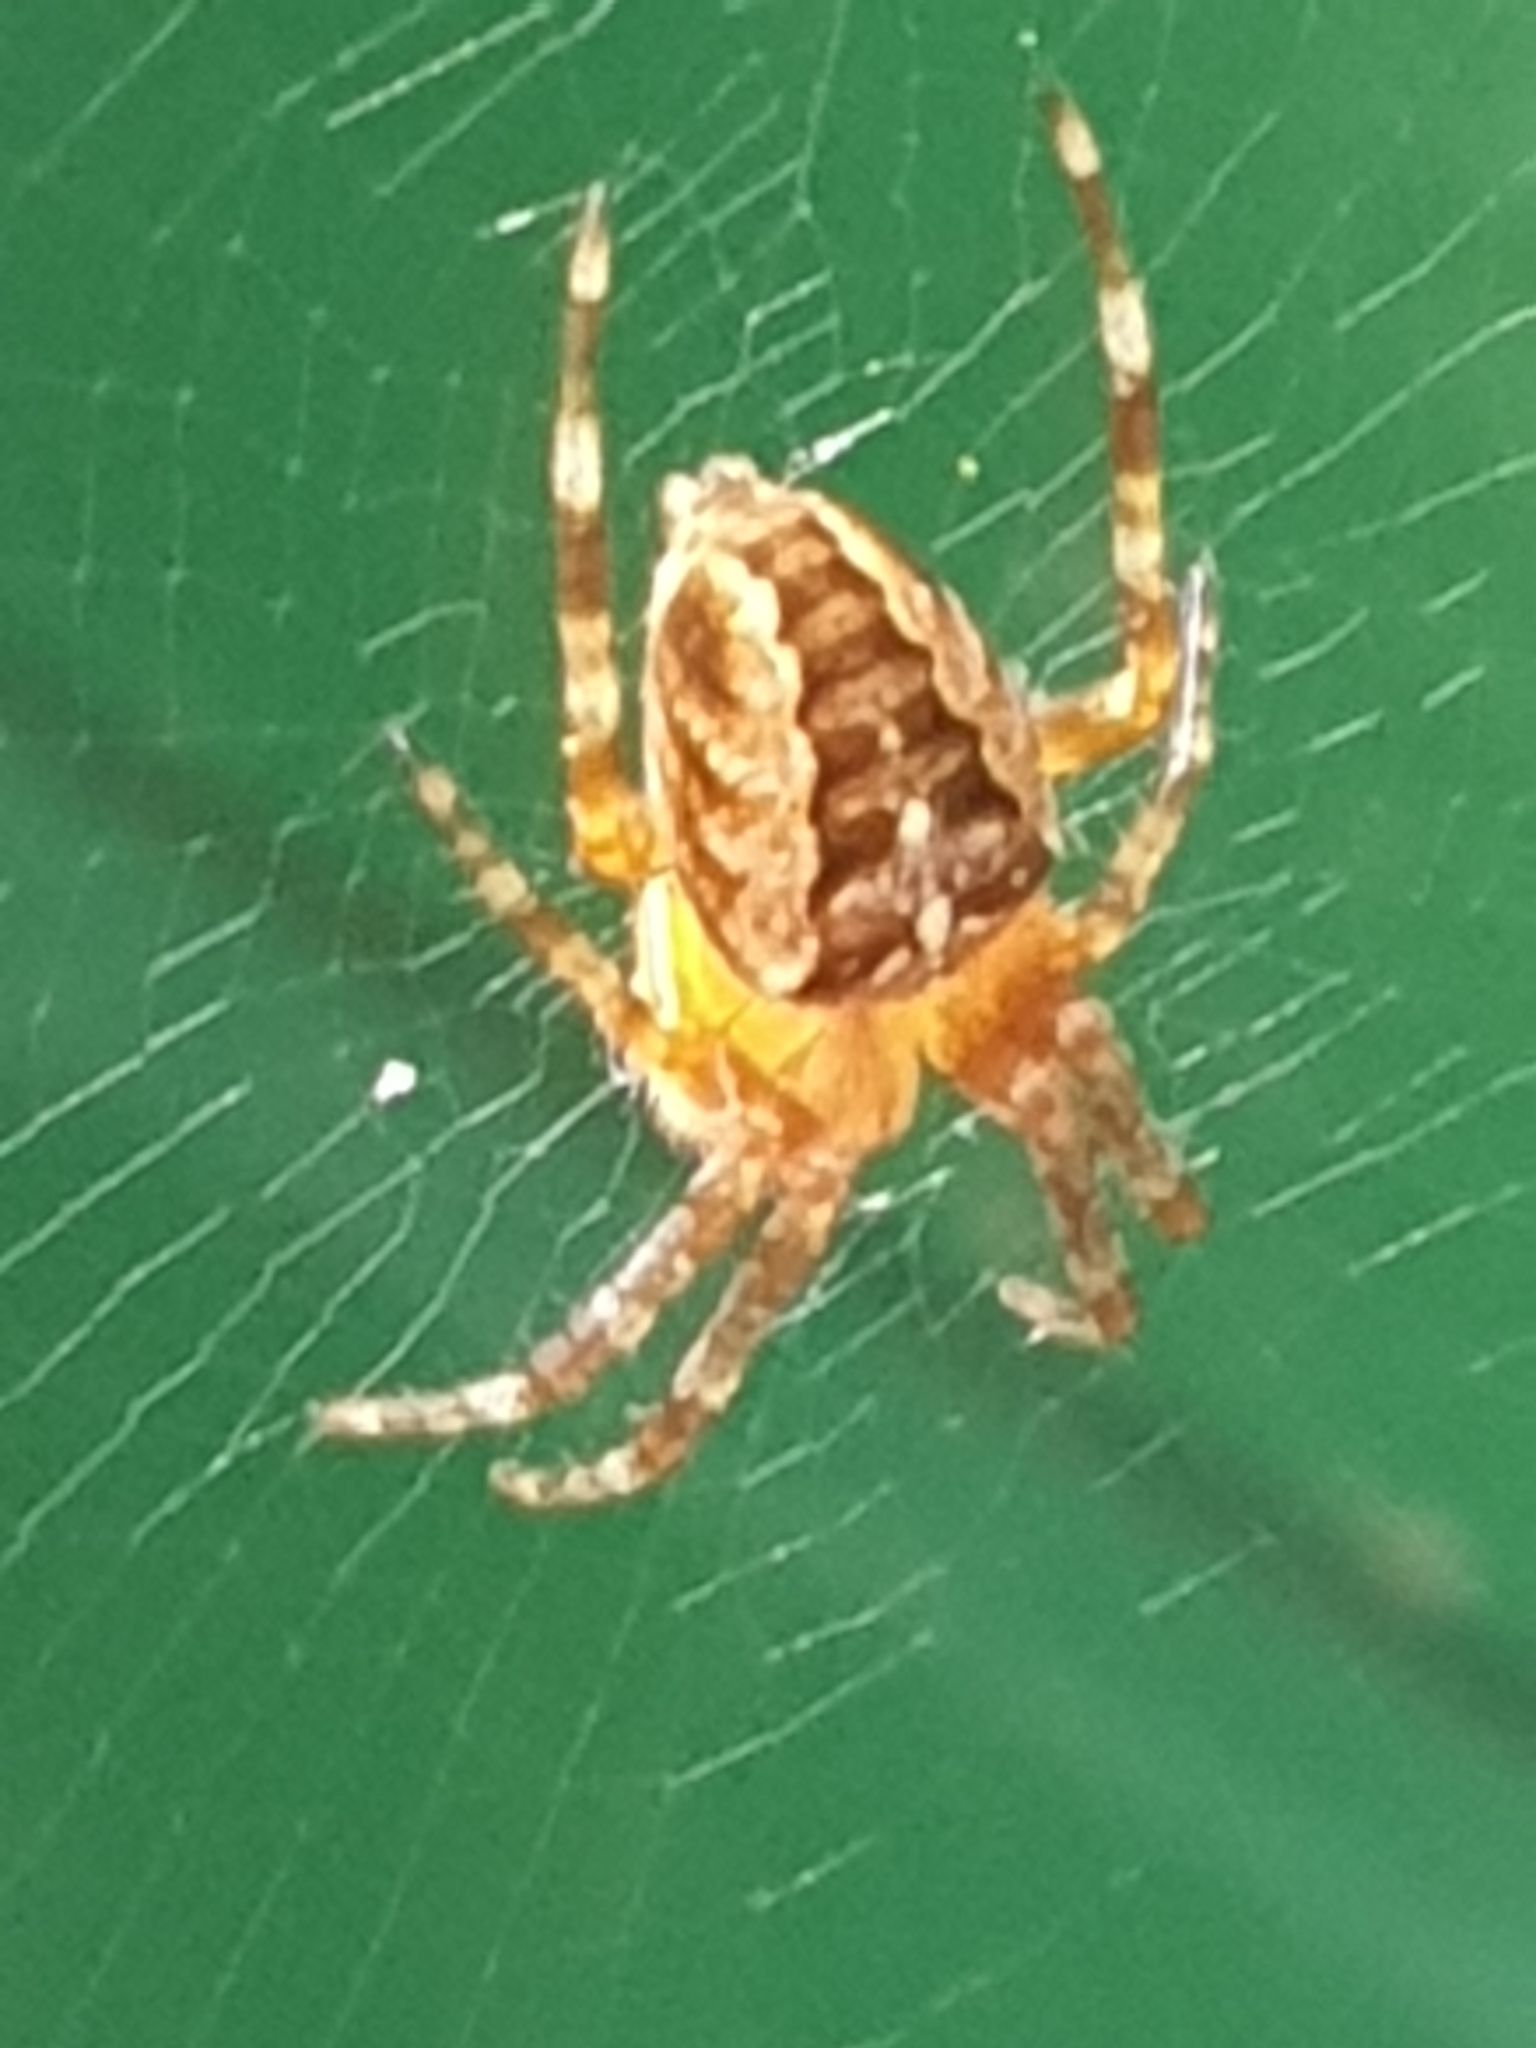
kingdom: Animalia
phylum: Arthropoda
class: Arachnida
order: Araneae
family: Araneidae
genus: Araneus
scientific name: Araneus diadematus
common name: Cross orbweaver
